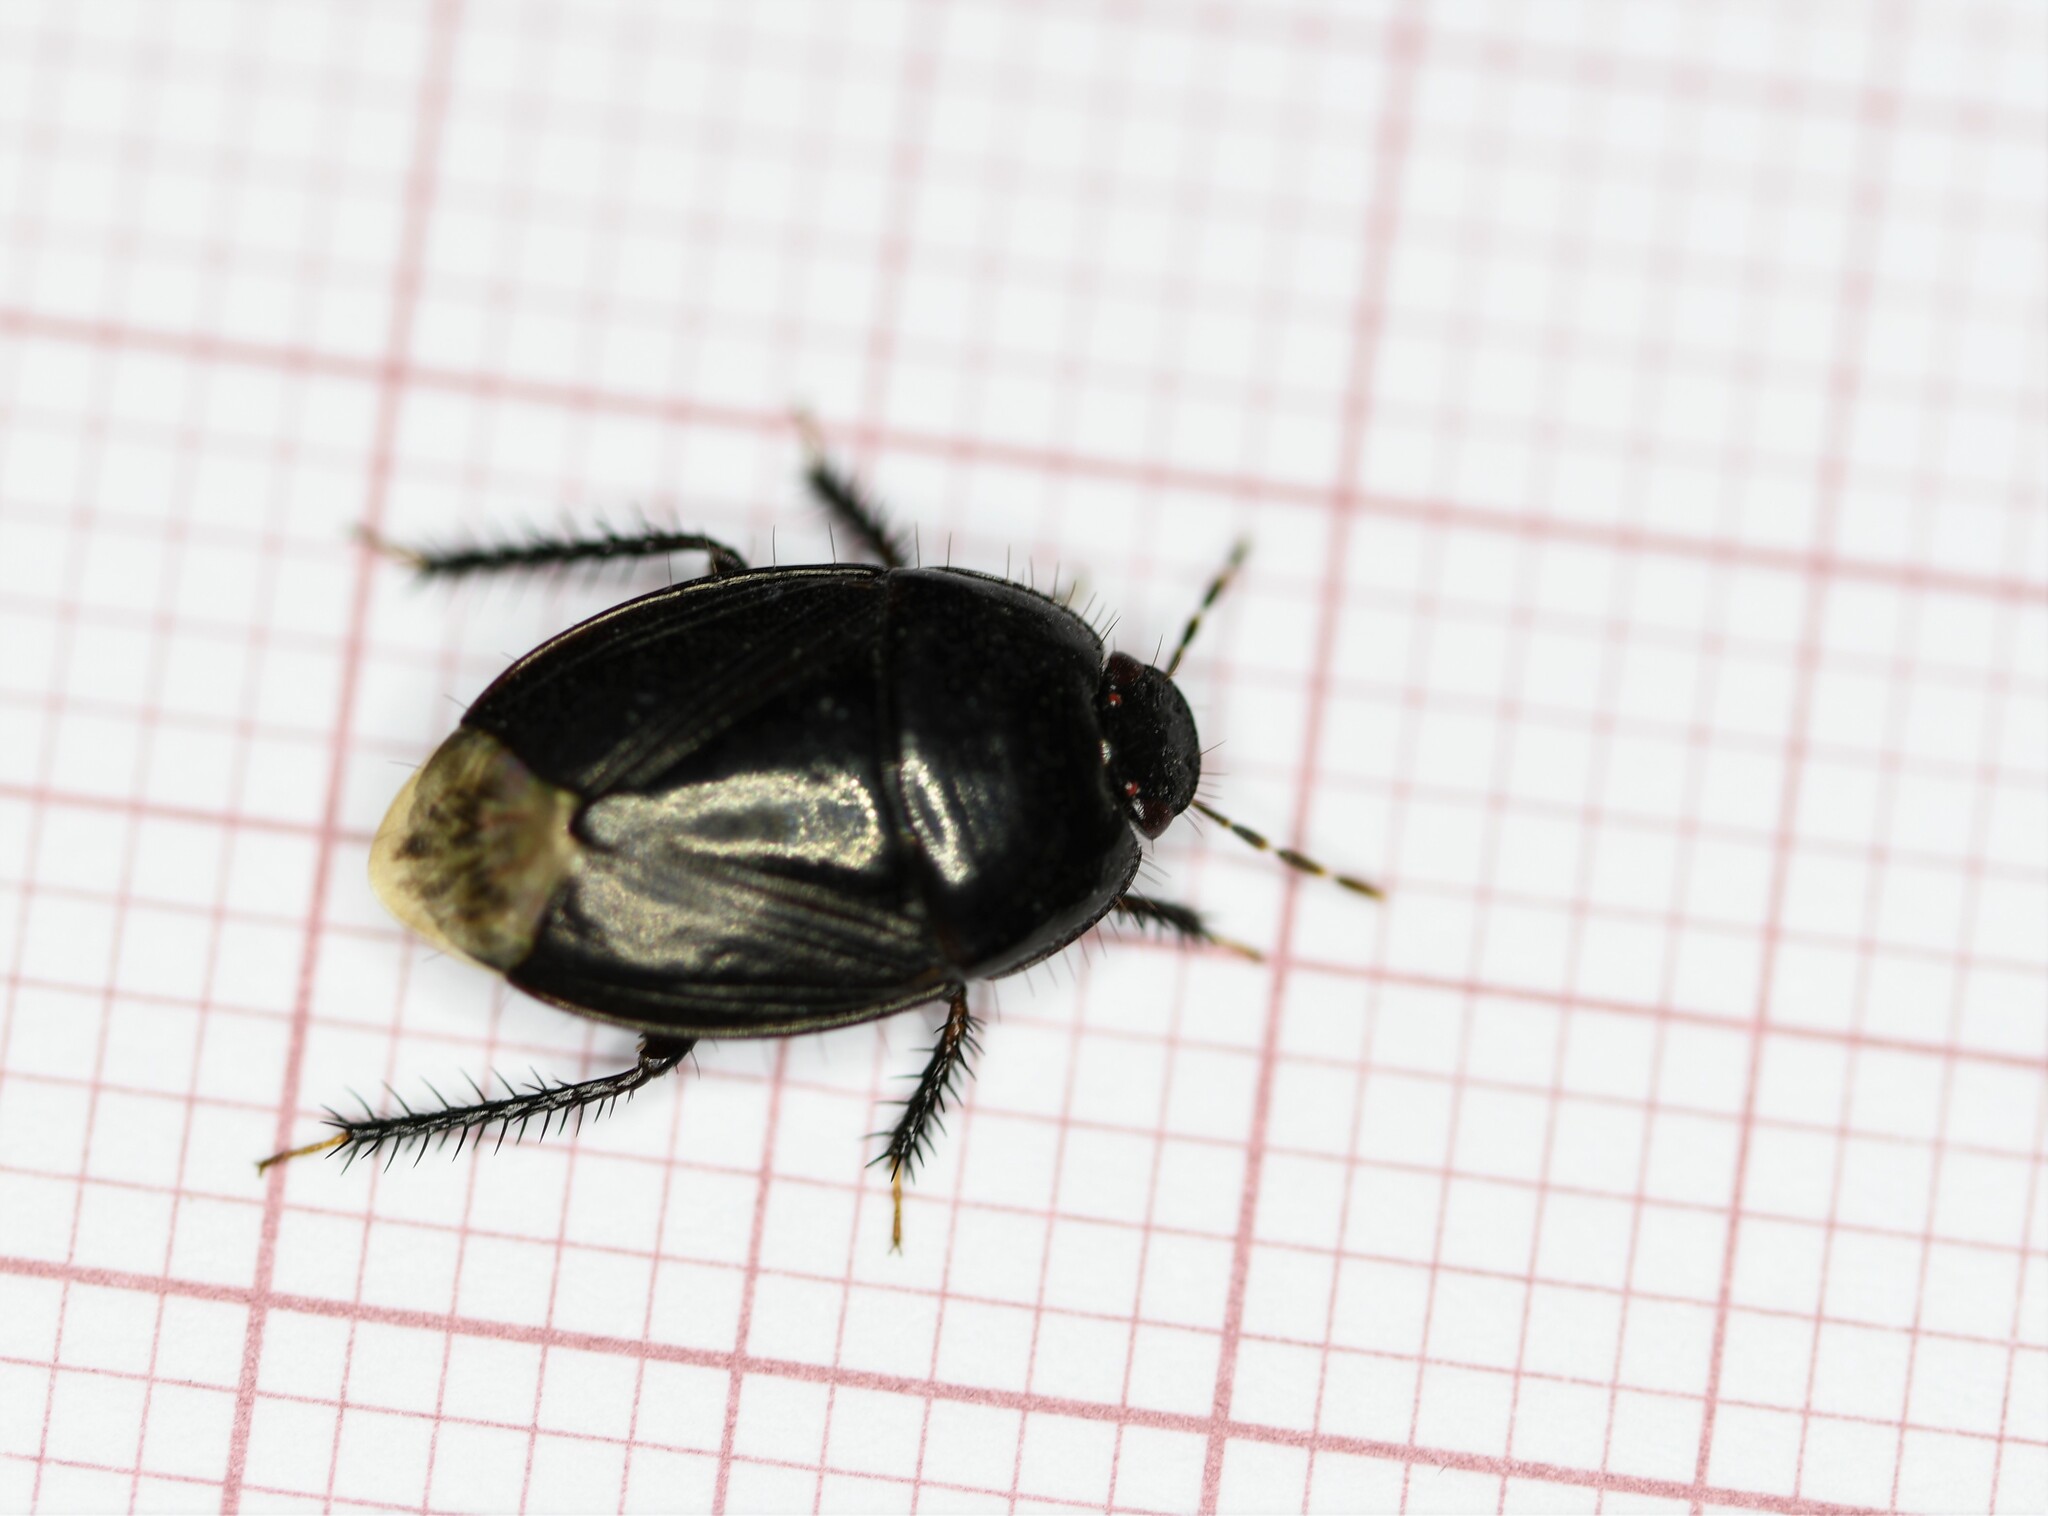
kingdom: Animalia
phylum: Arthropoda
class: Insecta
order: Hemiptera
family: Cydnidae
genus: Macroscytus
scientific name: Macroscytus brunneus
